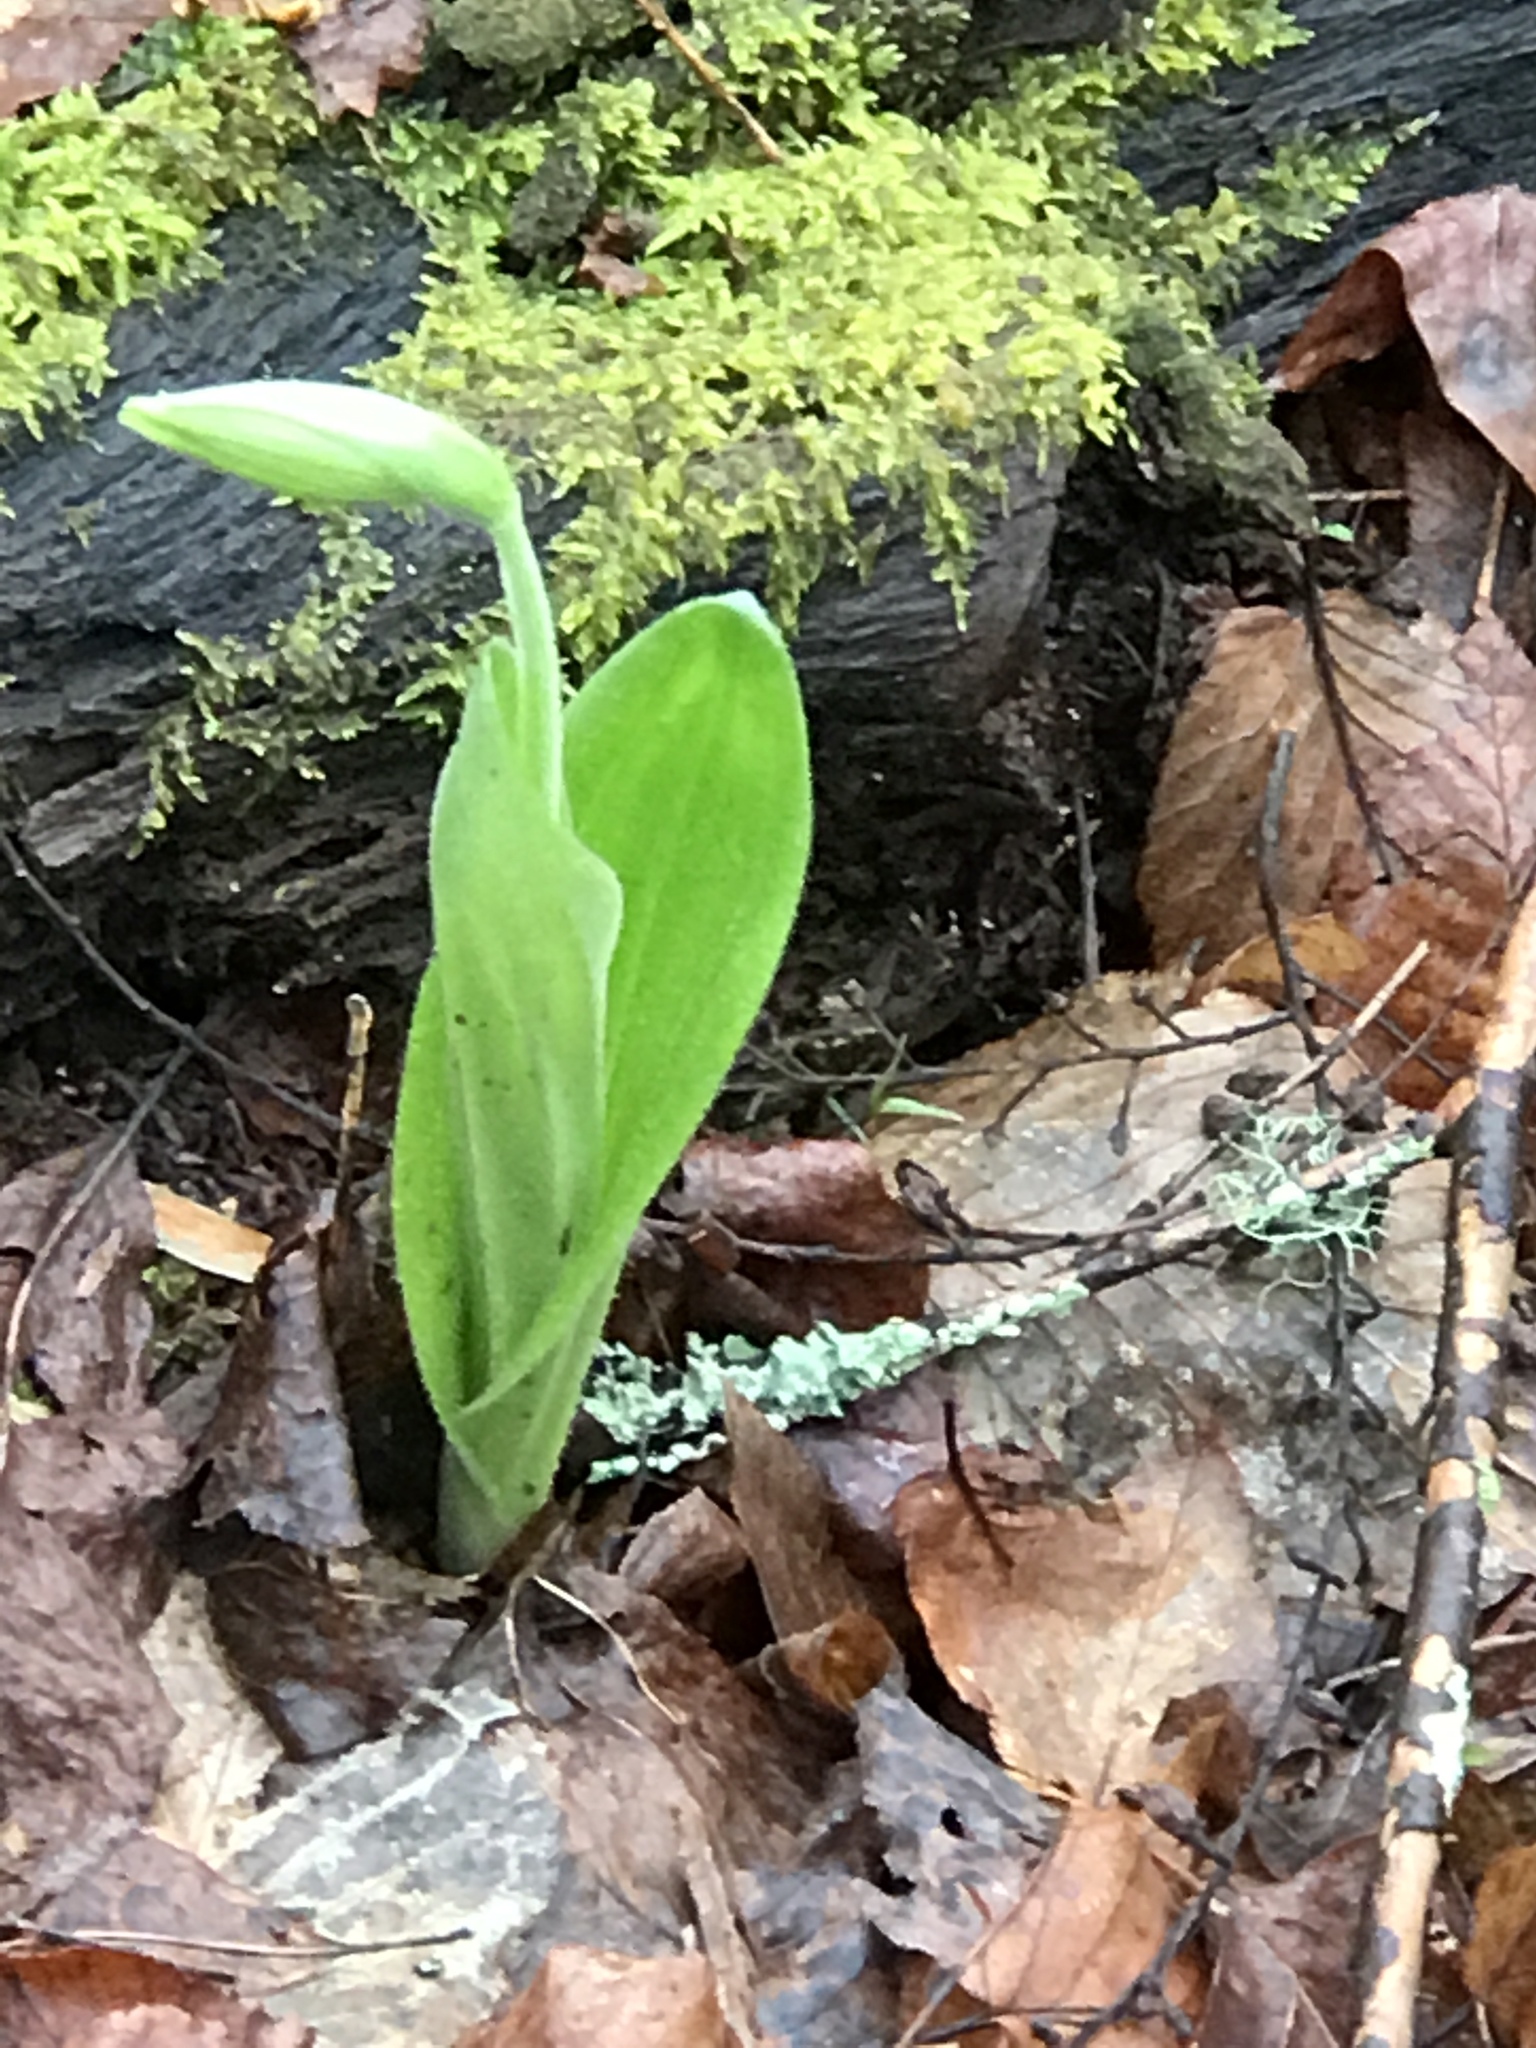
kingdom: Plantae
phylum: Tracheophyta
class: Liliopsida
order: Asparagales
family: Orchidaceae
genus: Cypripedium
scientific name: Cypripedium acaule
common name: Pink lady's-slipper
